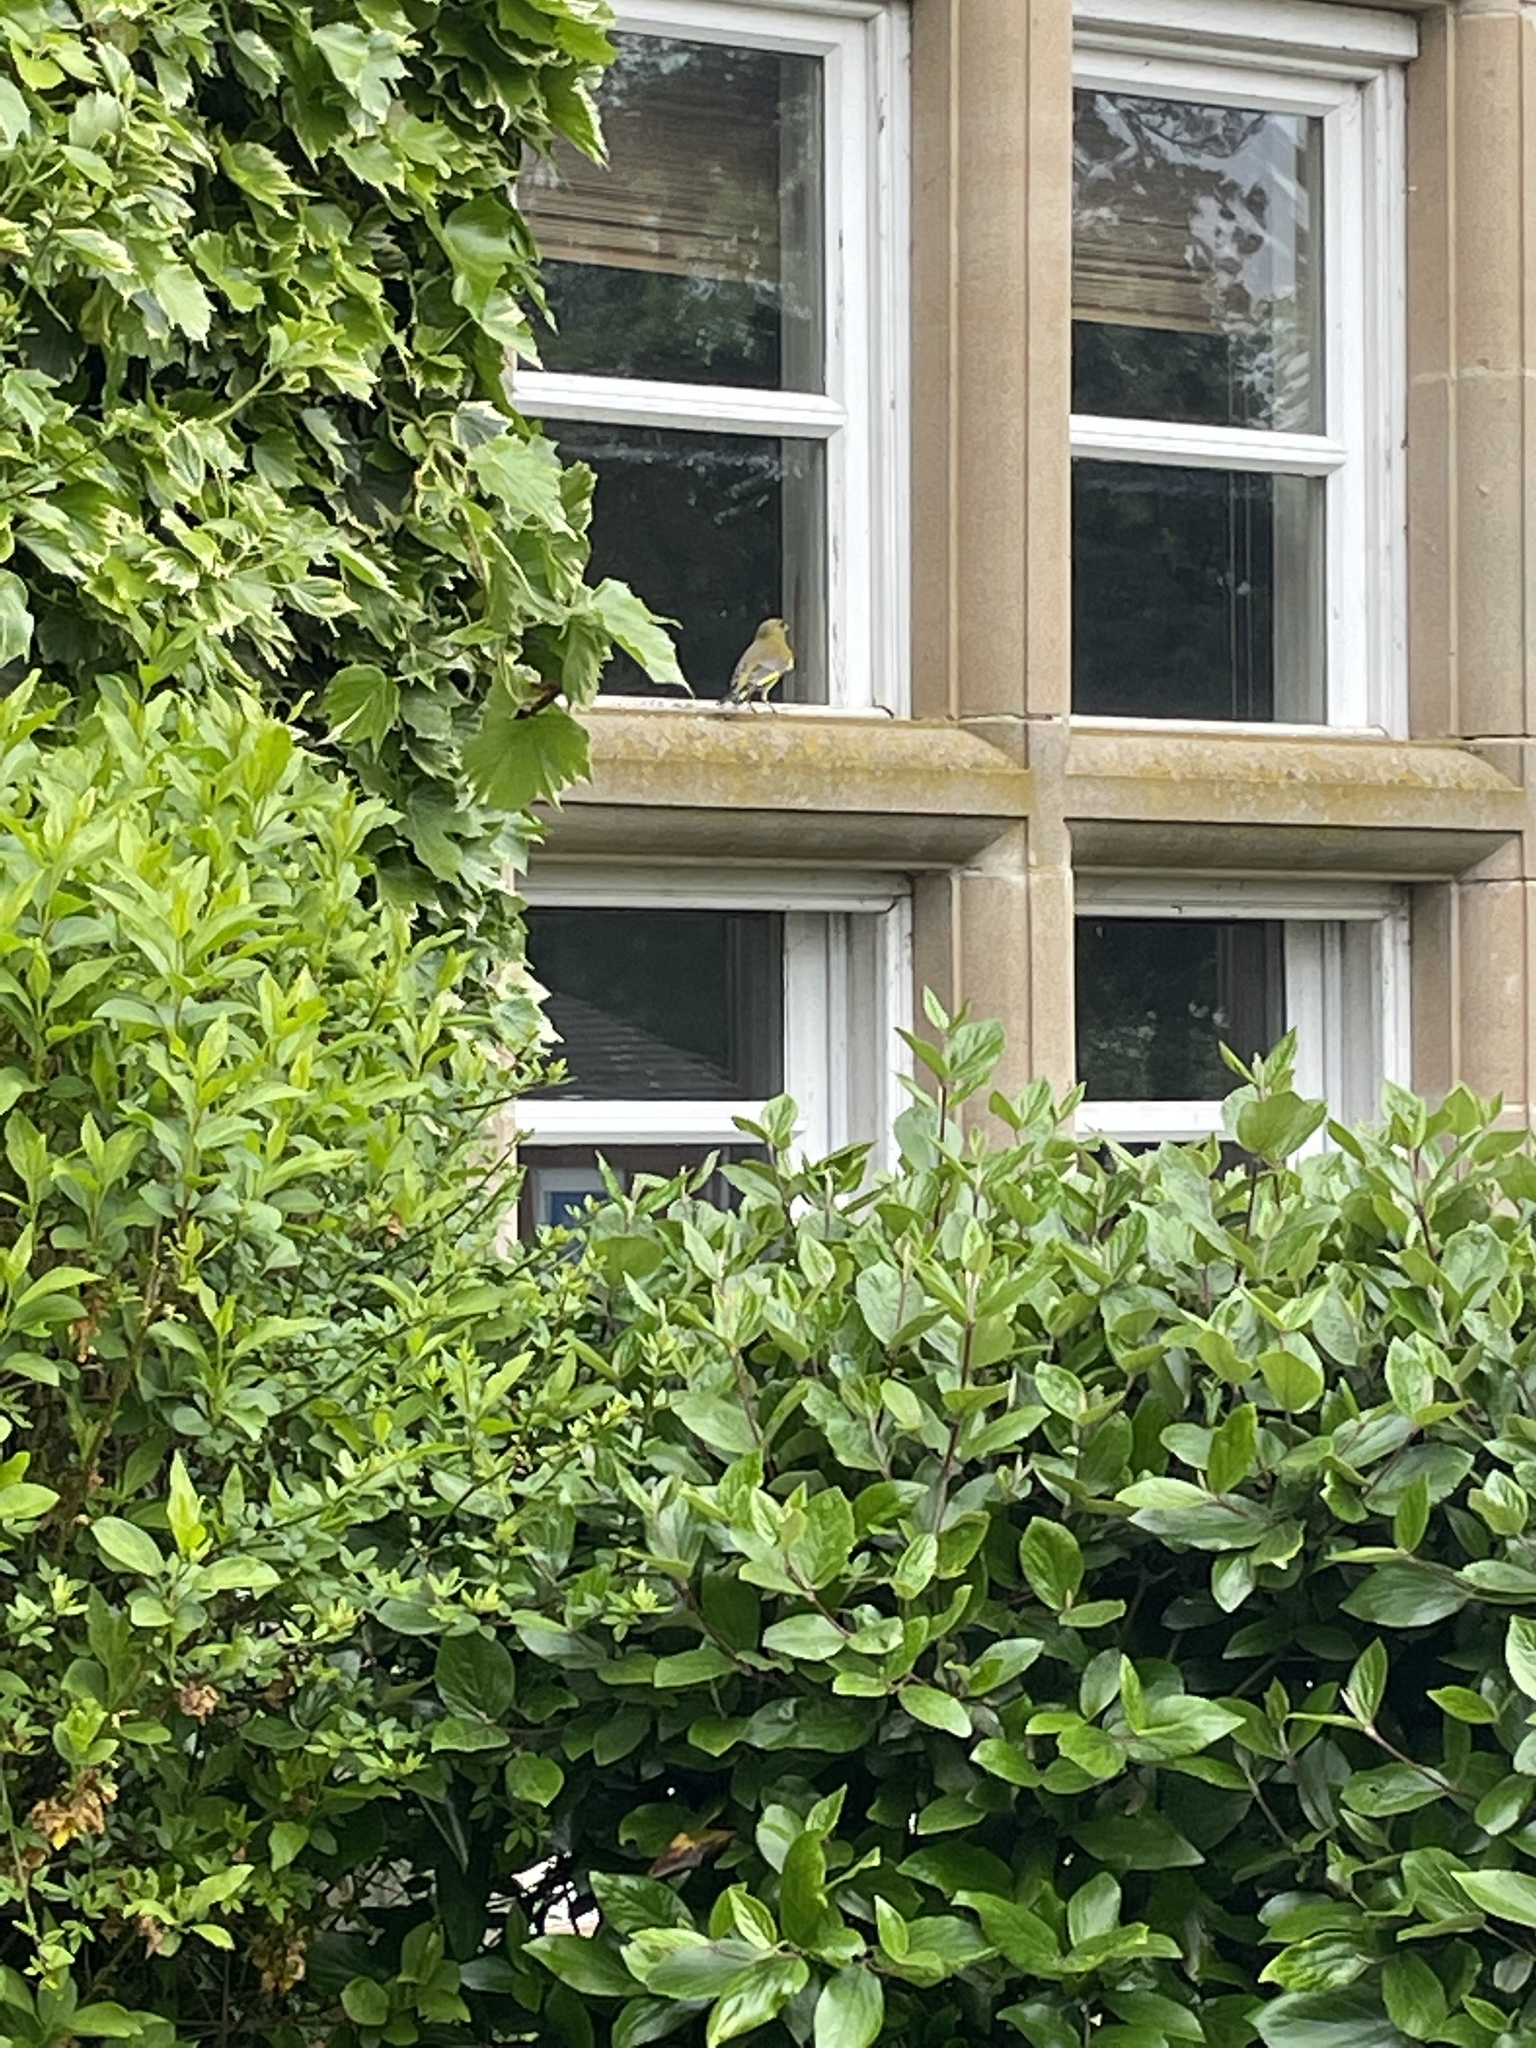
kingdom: Plantae
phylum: Tracheophyta
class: Liliopsida
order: Poales
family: Poaceae
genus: Chloris
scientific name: Chloris chloris
